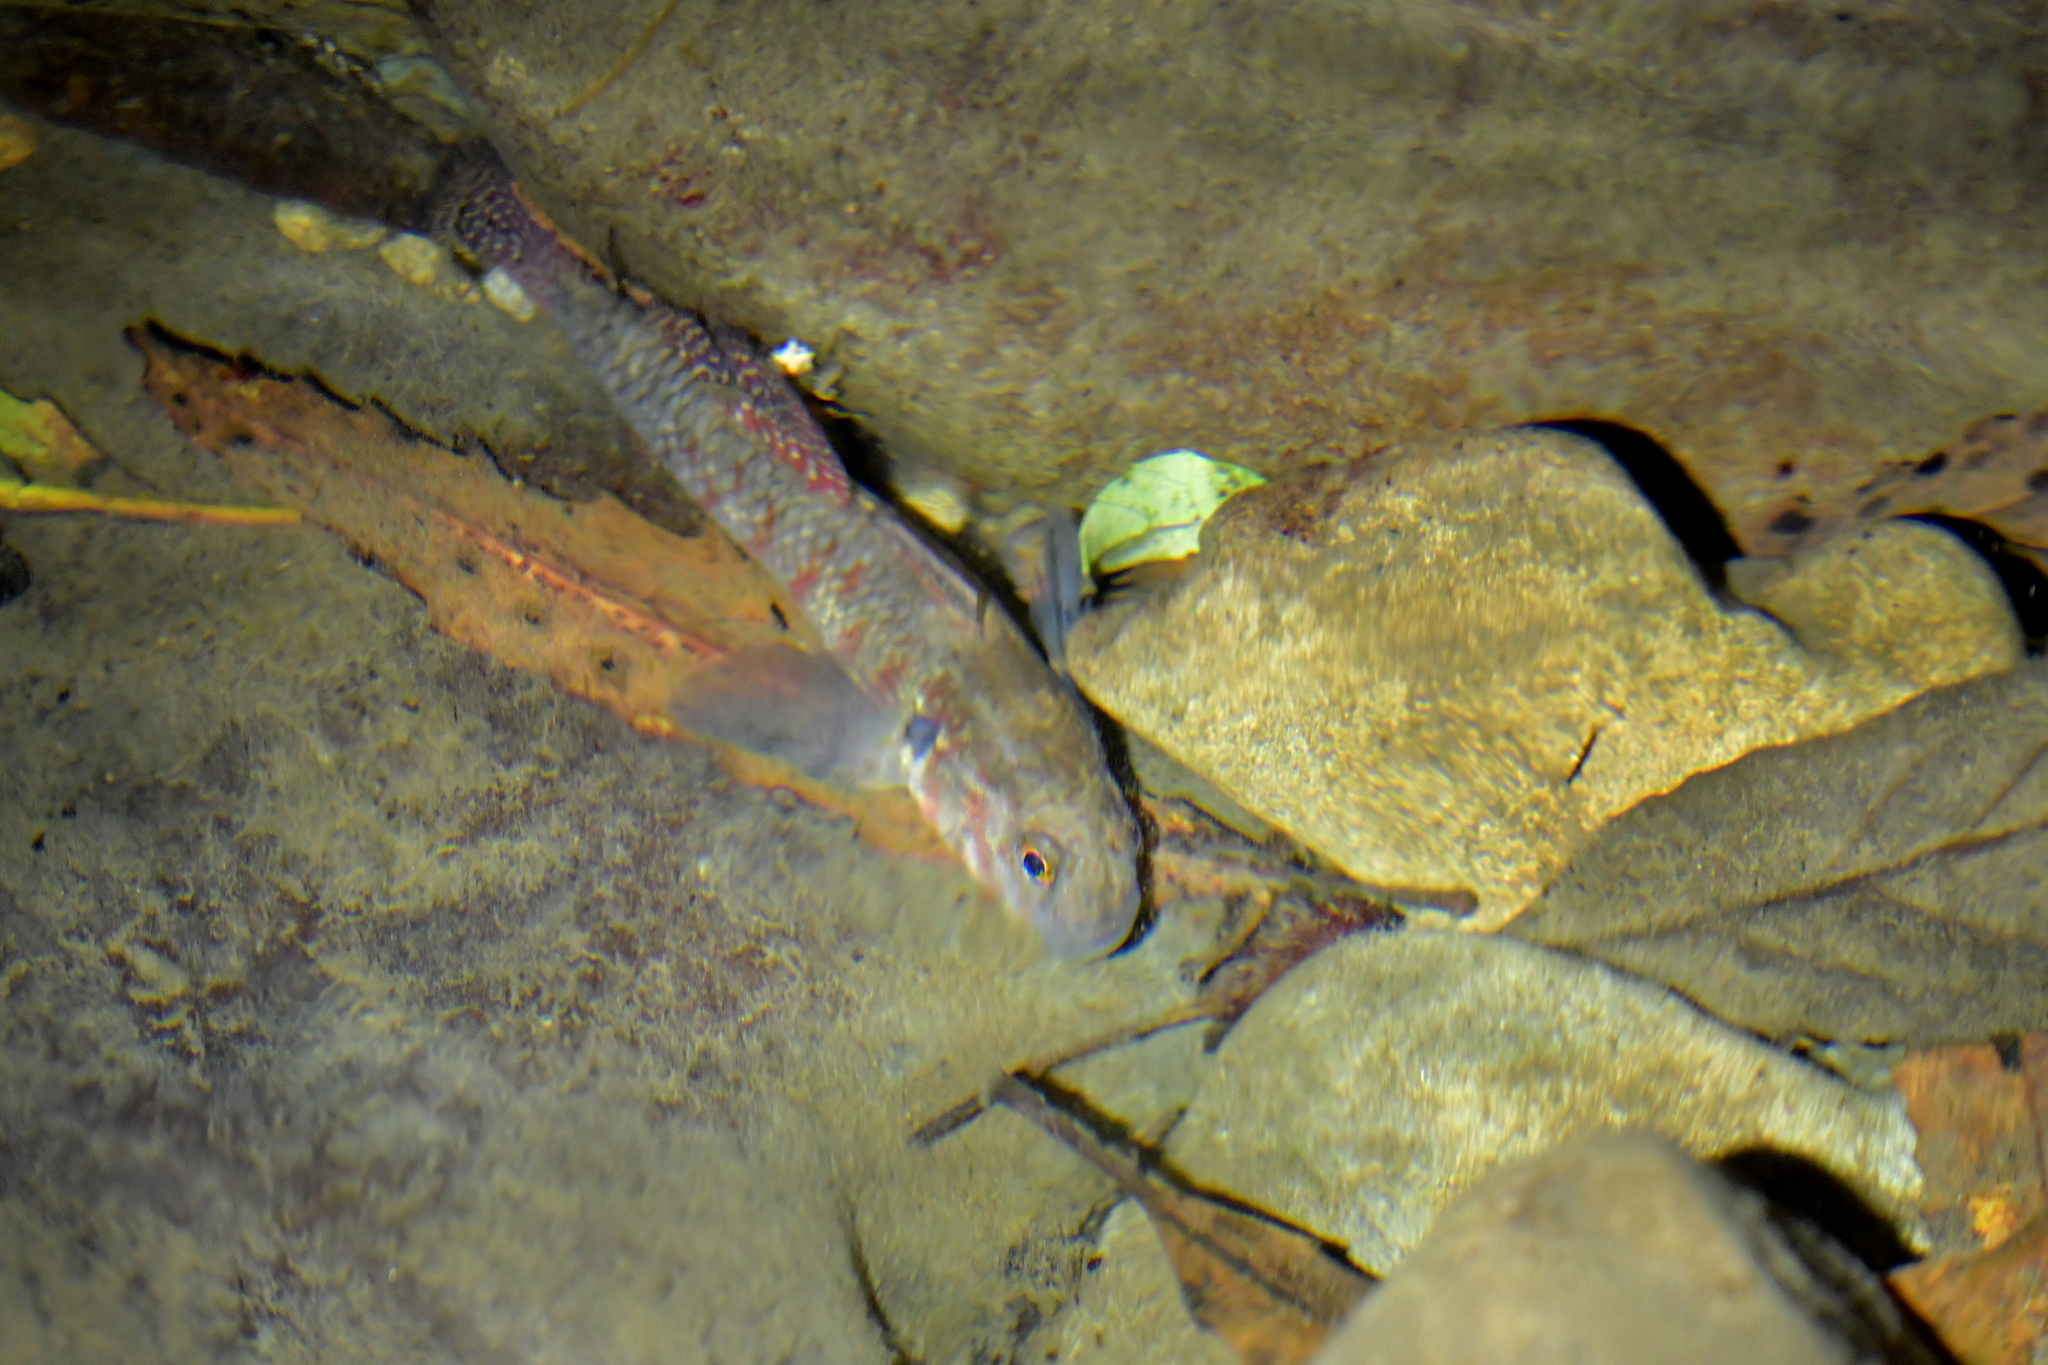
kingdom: Animalia
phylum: Chordata
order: Perciformes
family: Eleotridae
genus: Gobiomorphus
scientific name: Gobiomorphus huttoni
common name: Redfin bully
